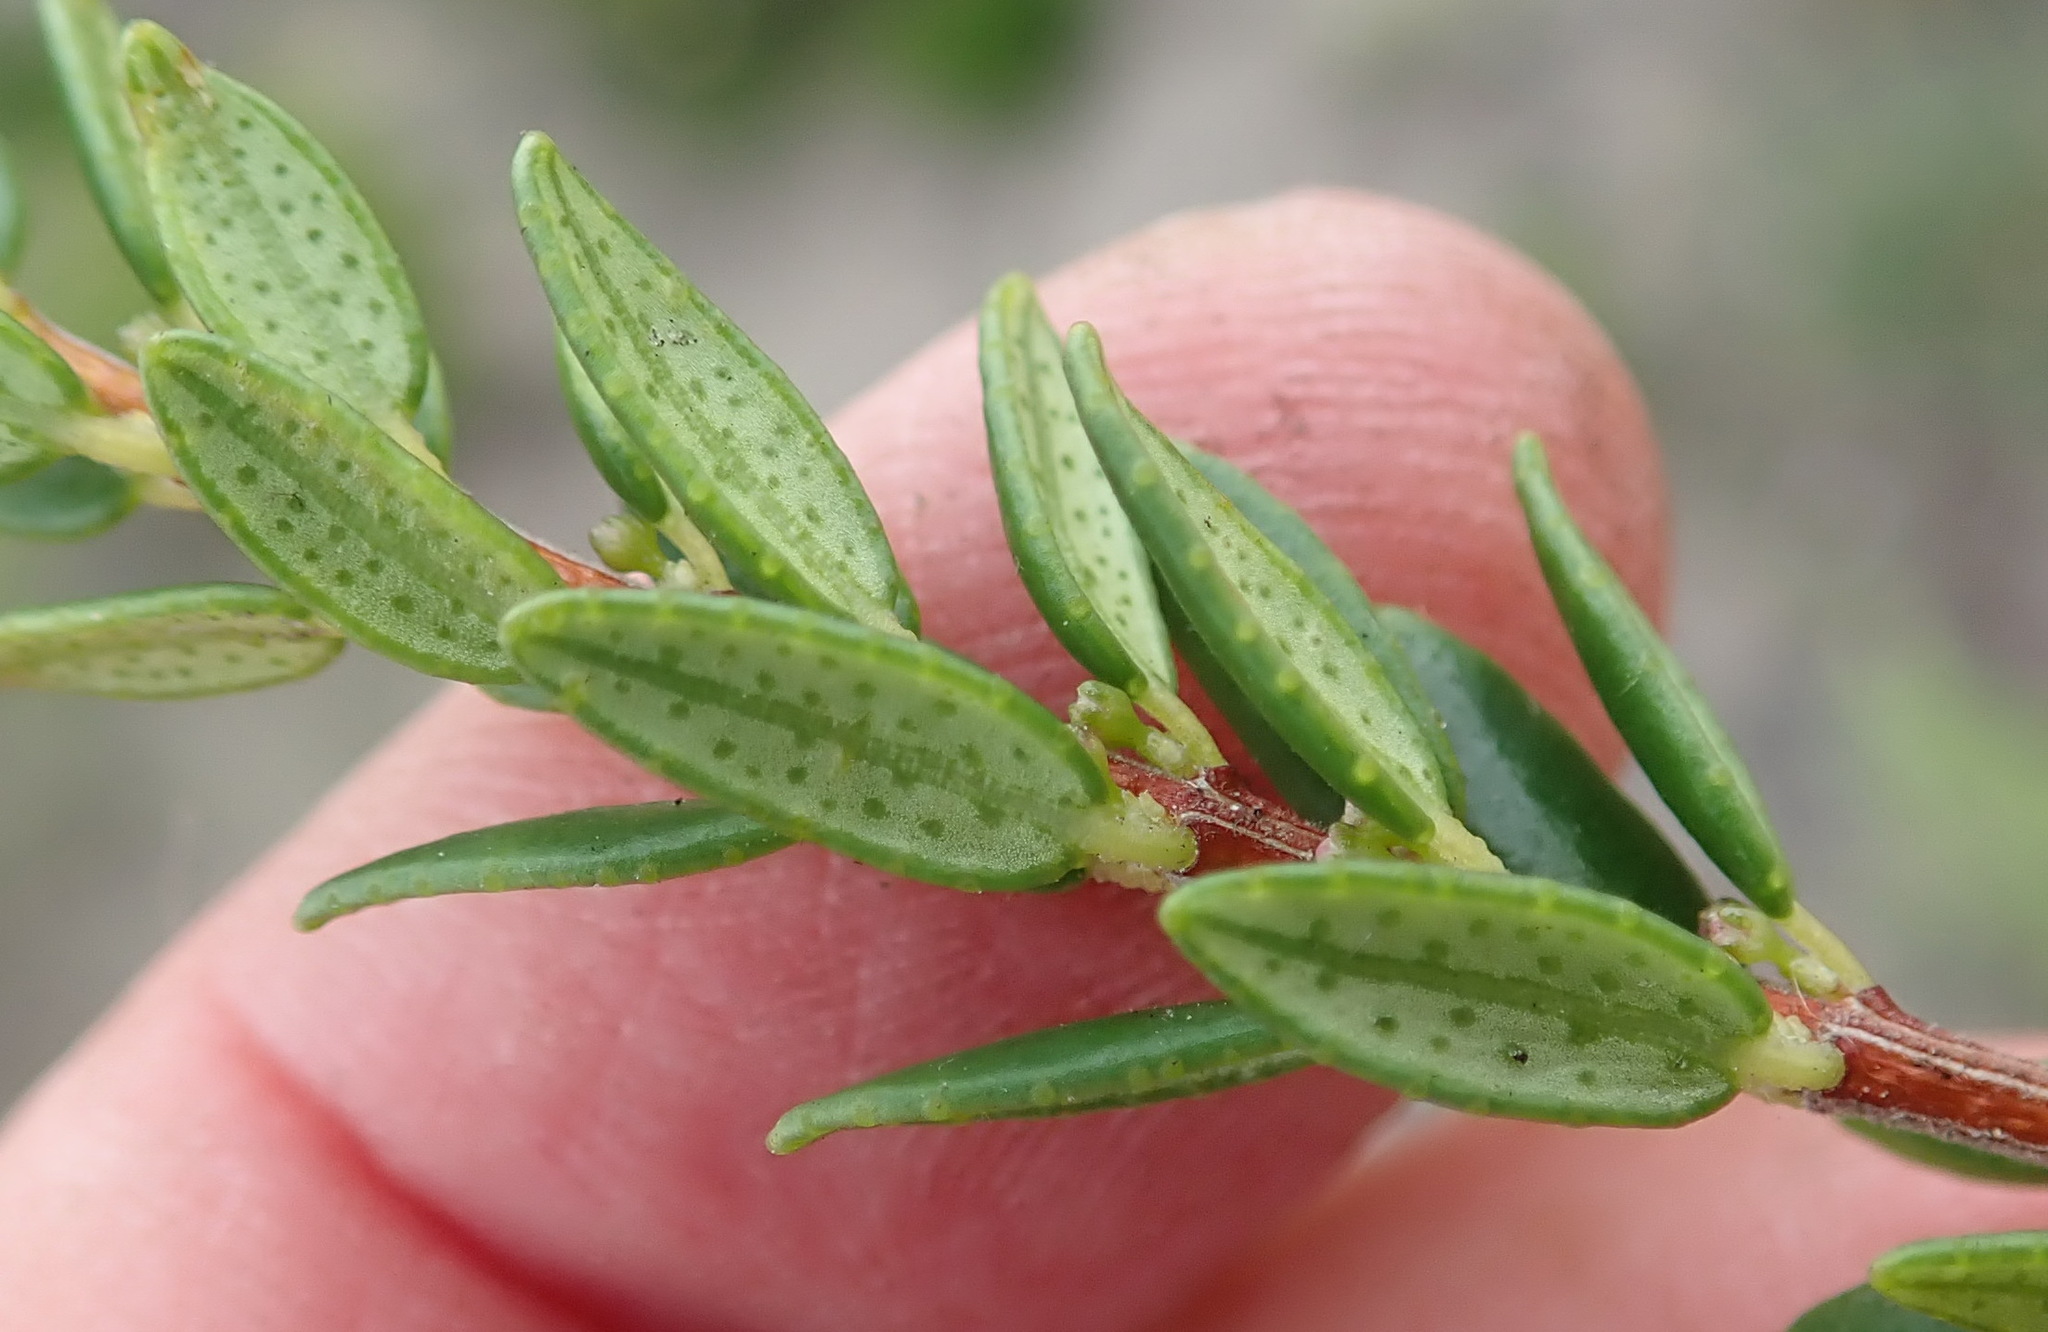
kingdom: Plantae
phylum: Tracheophyta
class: Magnoliopsida
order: Sapindales
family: Rutaceae
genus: Agathosma
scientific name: Agathosma ovata
